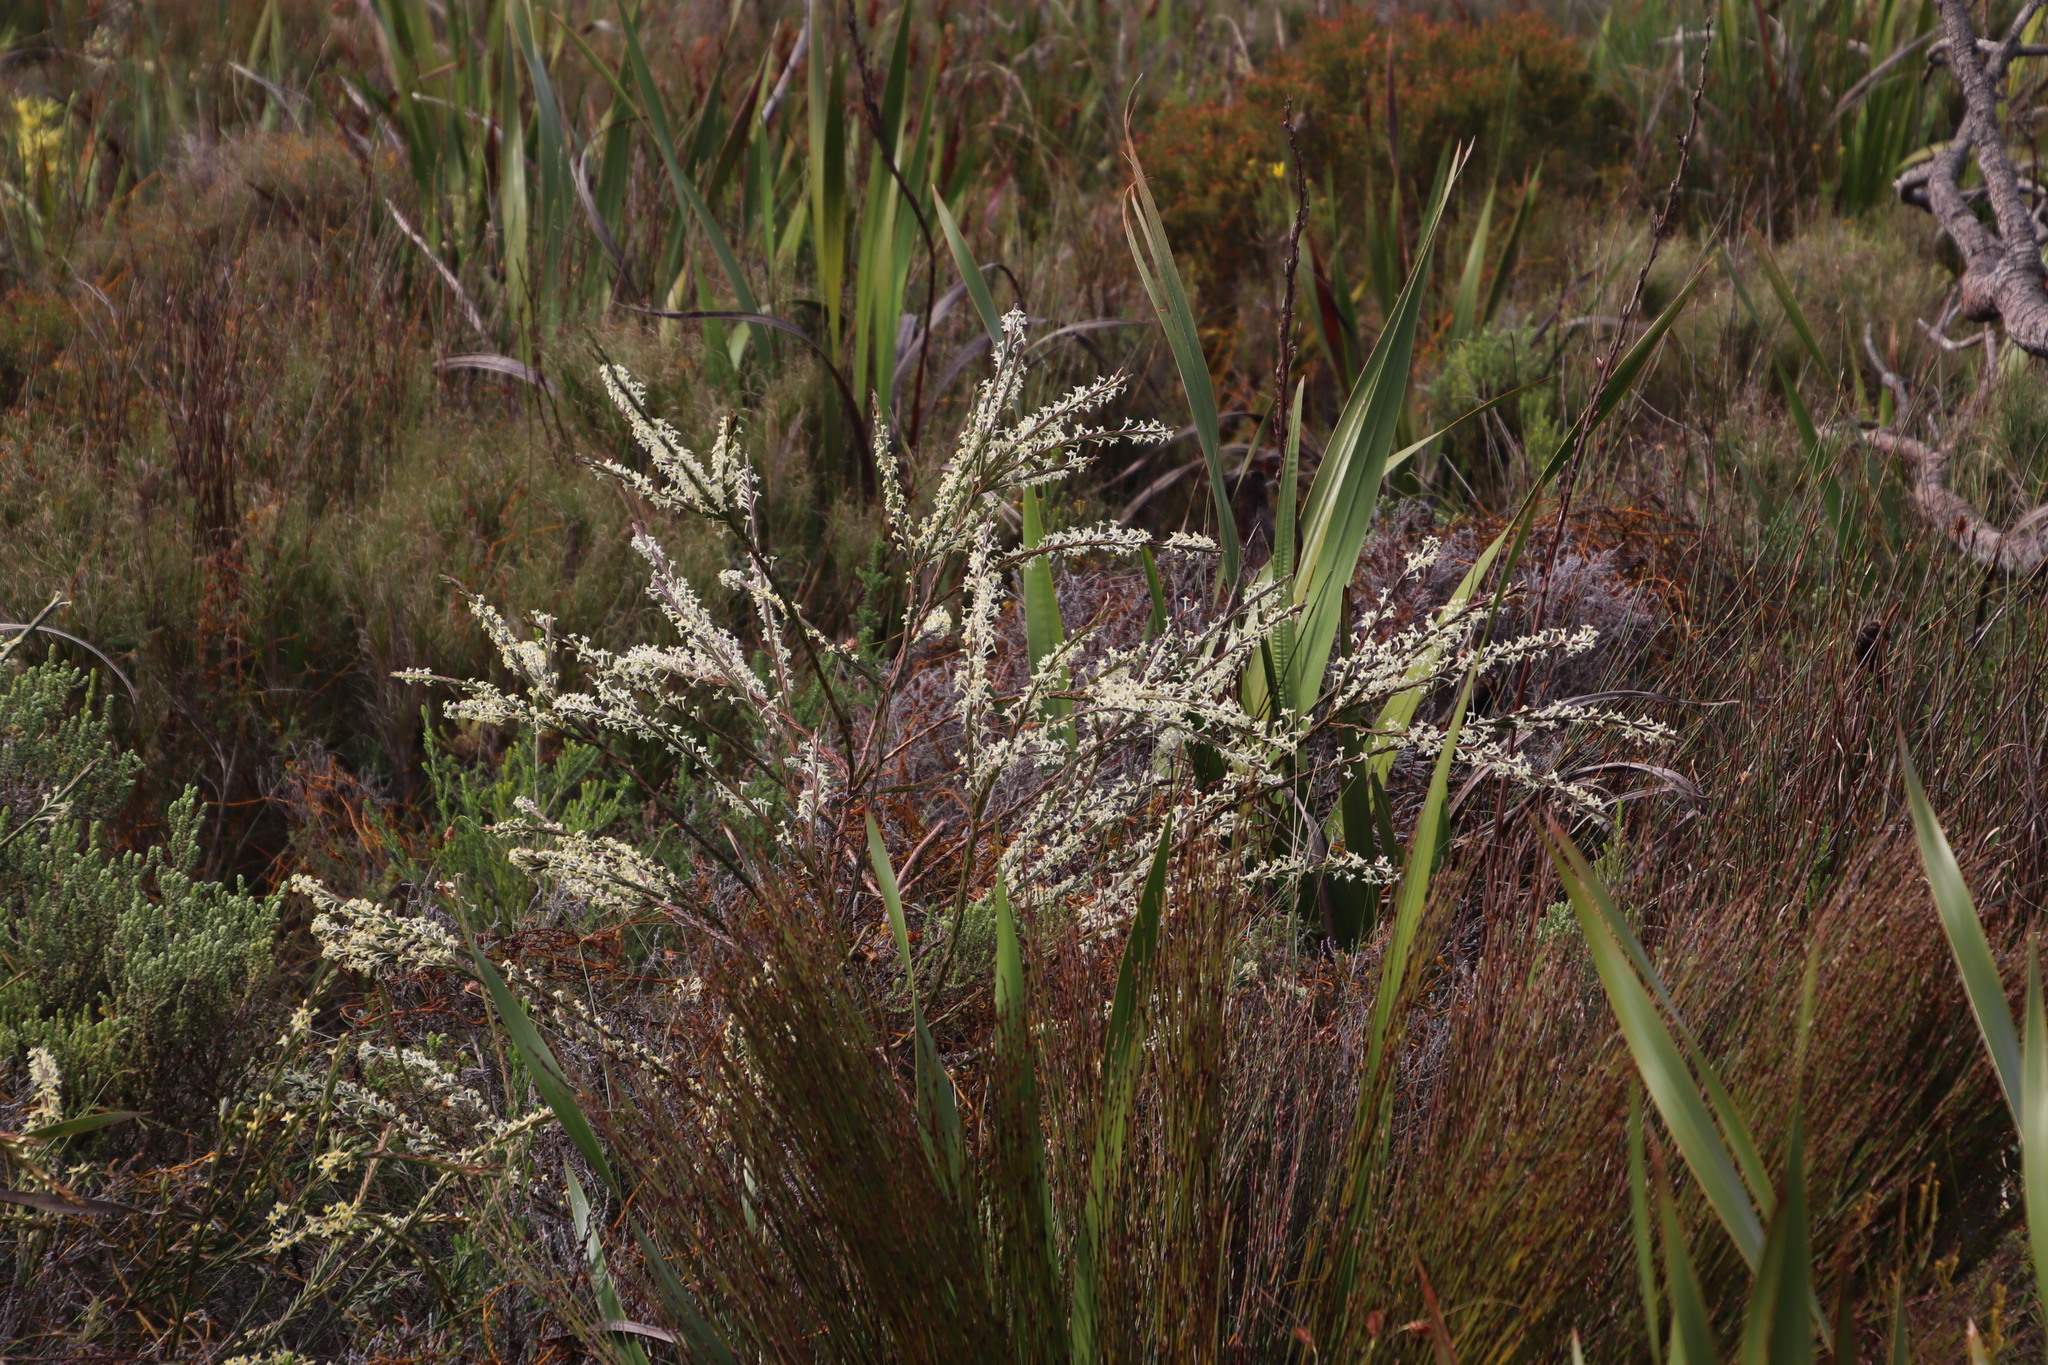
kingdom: Plantae
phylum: Tracheophyta
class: Magnoliopsida
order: Malvales
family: Thymelaeaceae
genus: Struthiola
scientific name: Struthiola dodecandra
